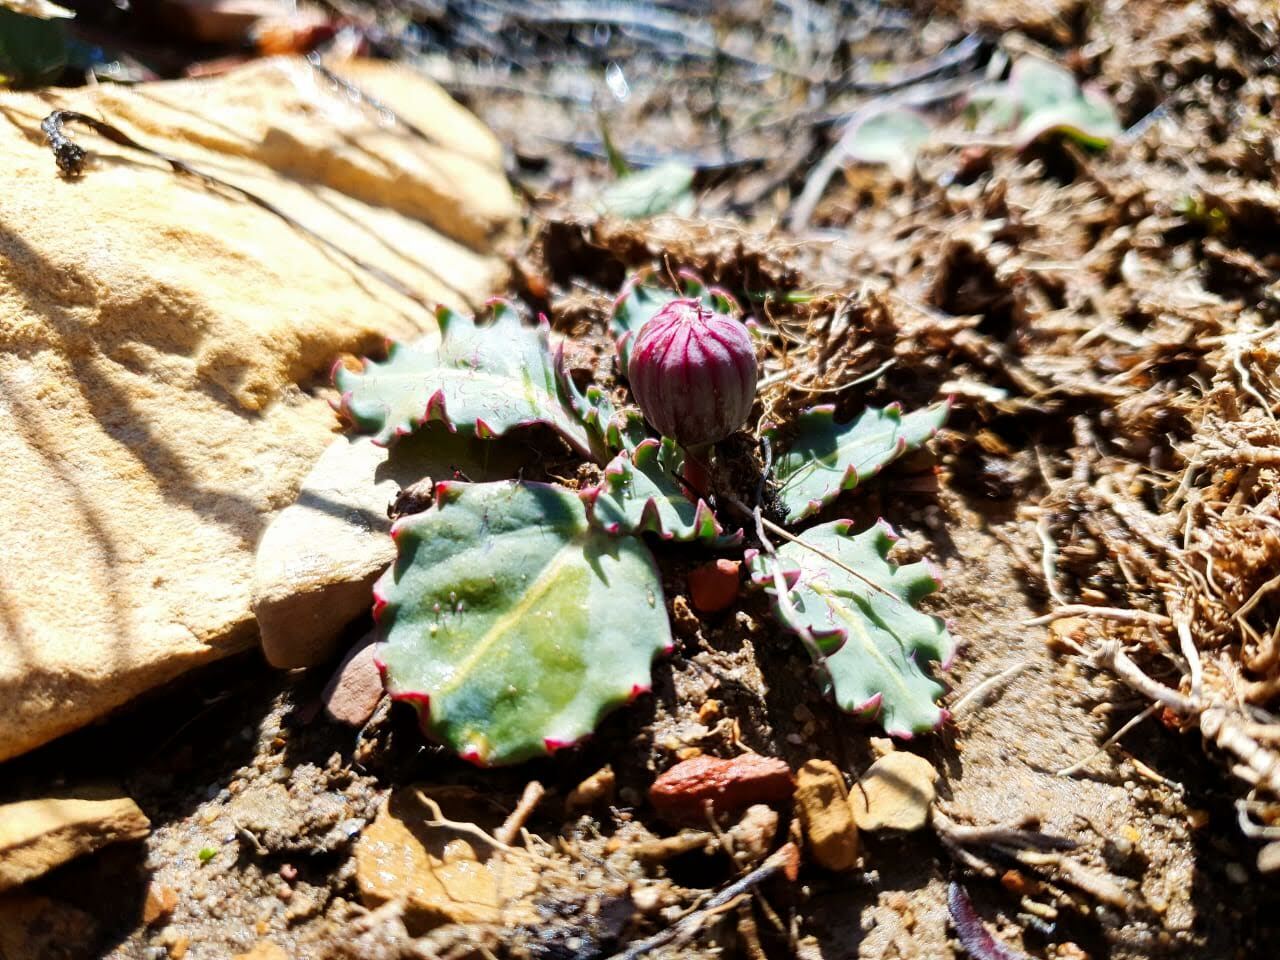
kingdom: Plantae
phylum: Tracheophyta
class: Magnoliopsida
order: Asterales
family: Asteraceae
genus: Othonna
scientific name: Othonna auriculifolia
